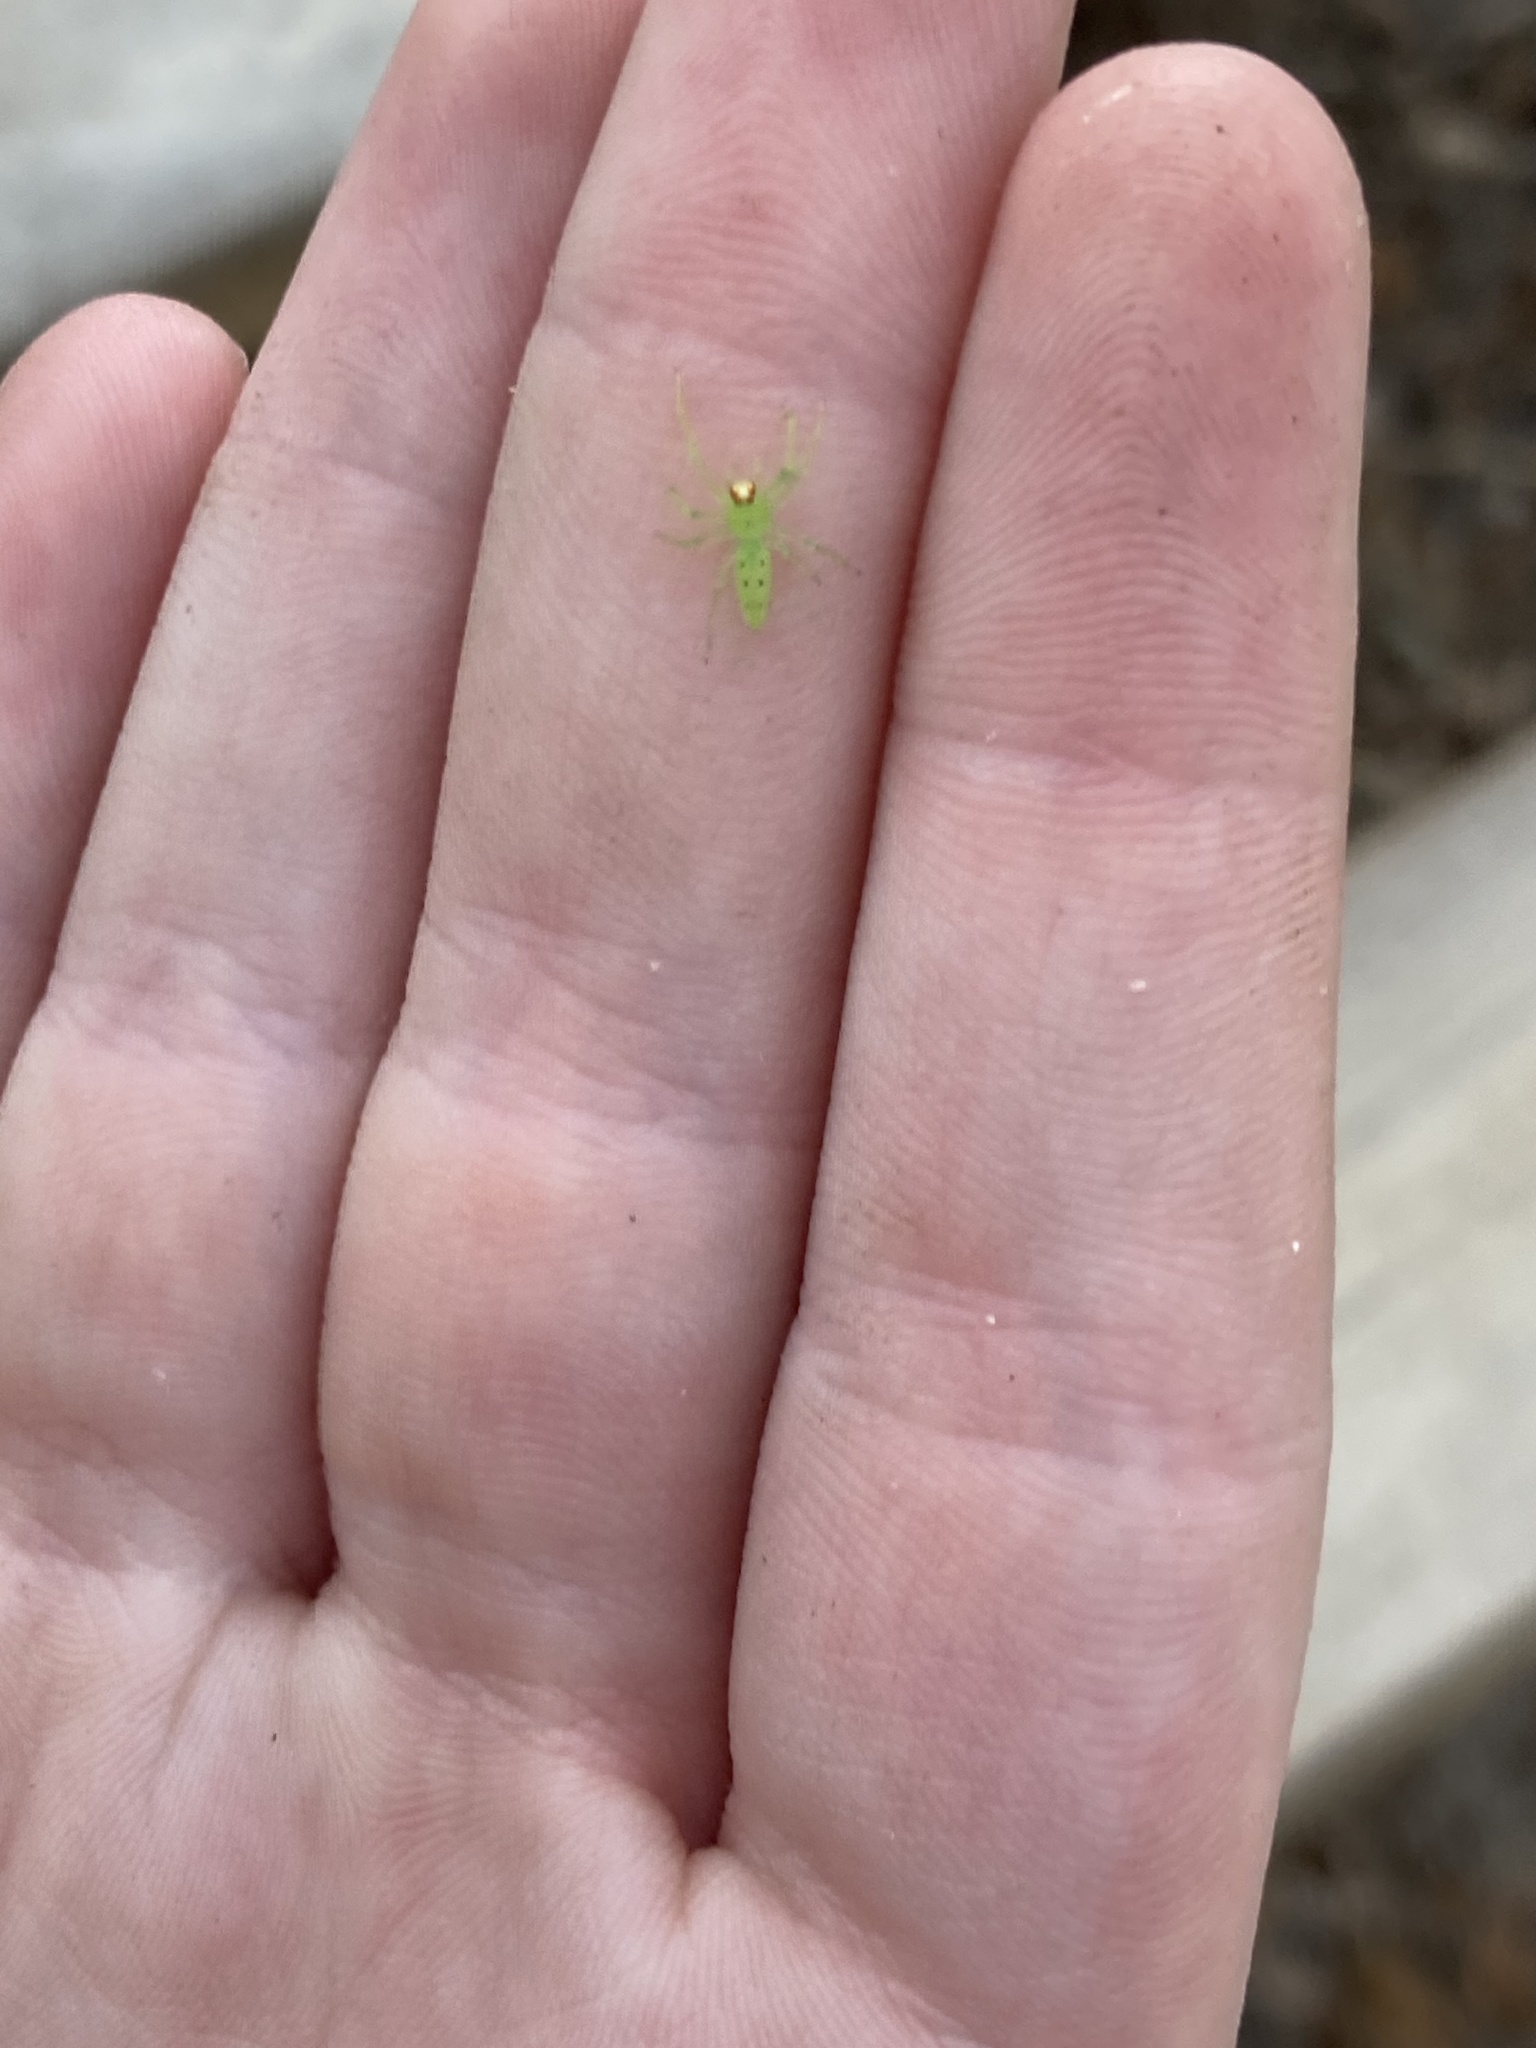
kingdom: Animalia
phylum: Arthropoda
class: Arachnida
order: Araneae
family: Salticidae
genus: Lyssomanes
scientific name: Lyssomanes viridis
